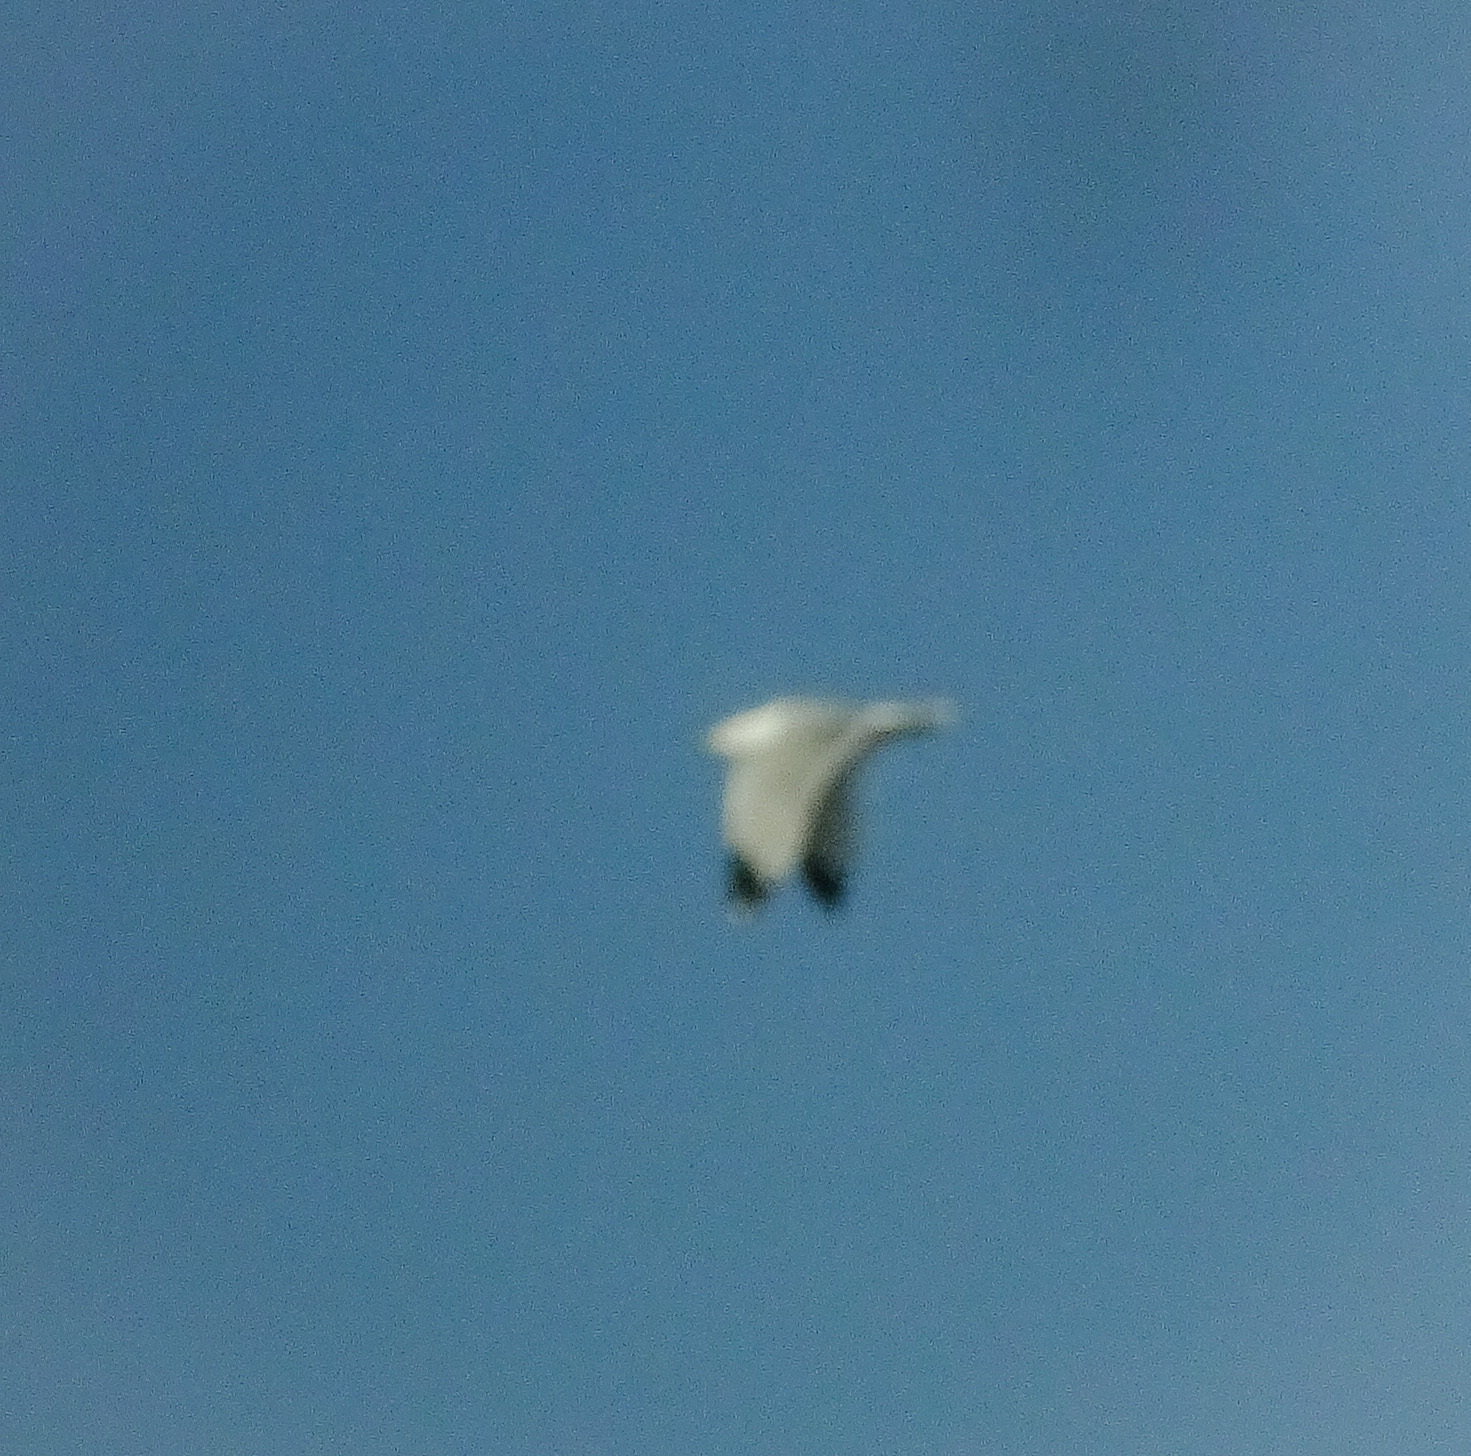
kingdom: Animalia
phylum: Chordata
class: Aves
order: Charadriiformes
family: Laridae
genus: Larus
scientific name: Larus delawarensis
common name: Ring-billed gull
